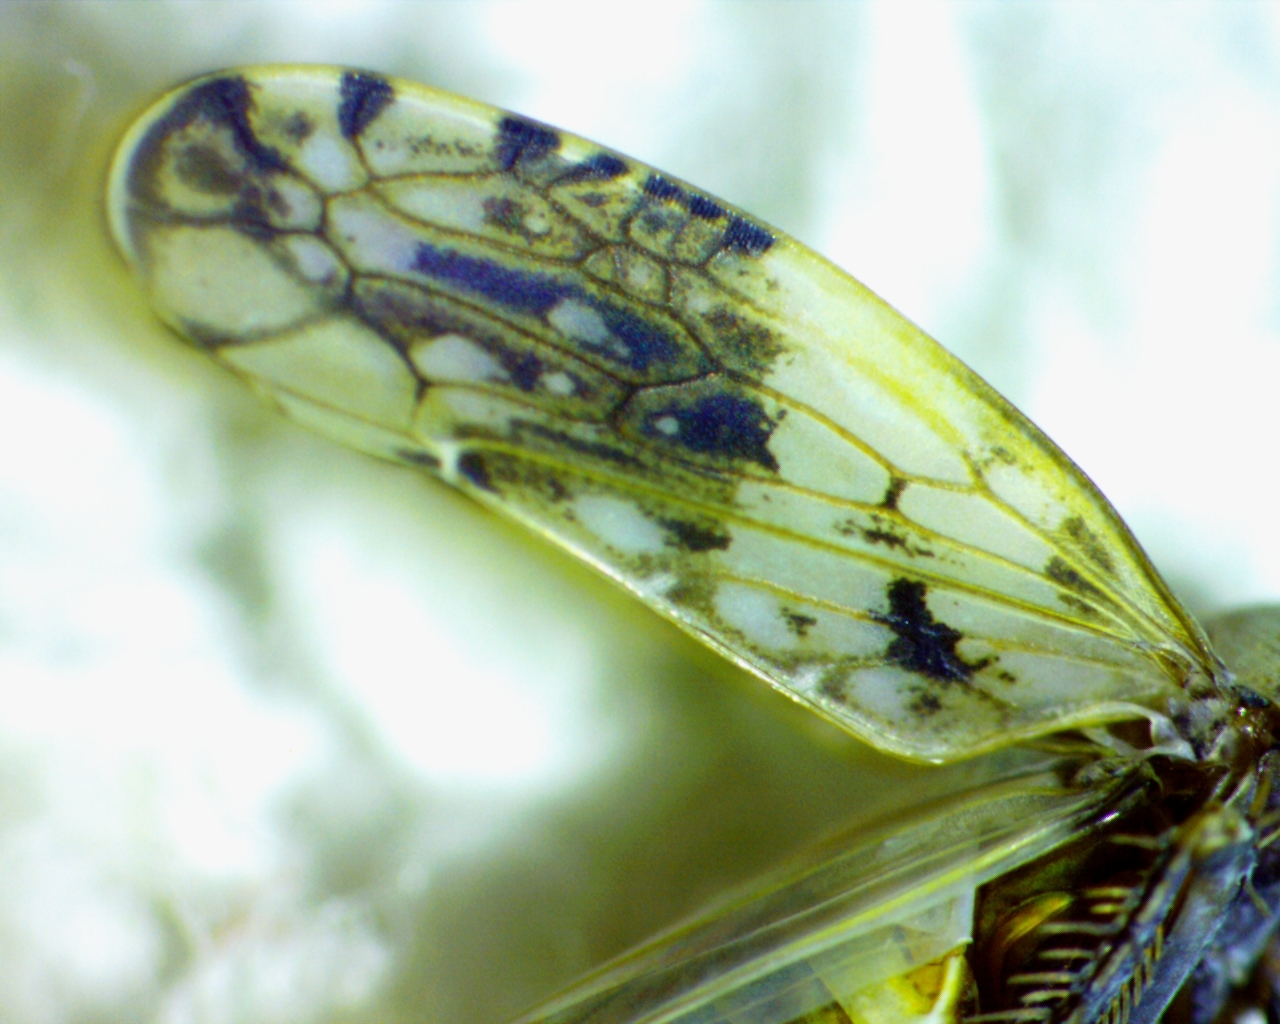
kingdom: Animalia
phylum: Arthropoda
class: Insecta
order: Hemiptera
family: Cicadellidae
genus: Menosoma
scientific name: Menosoma cinctum
